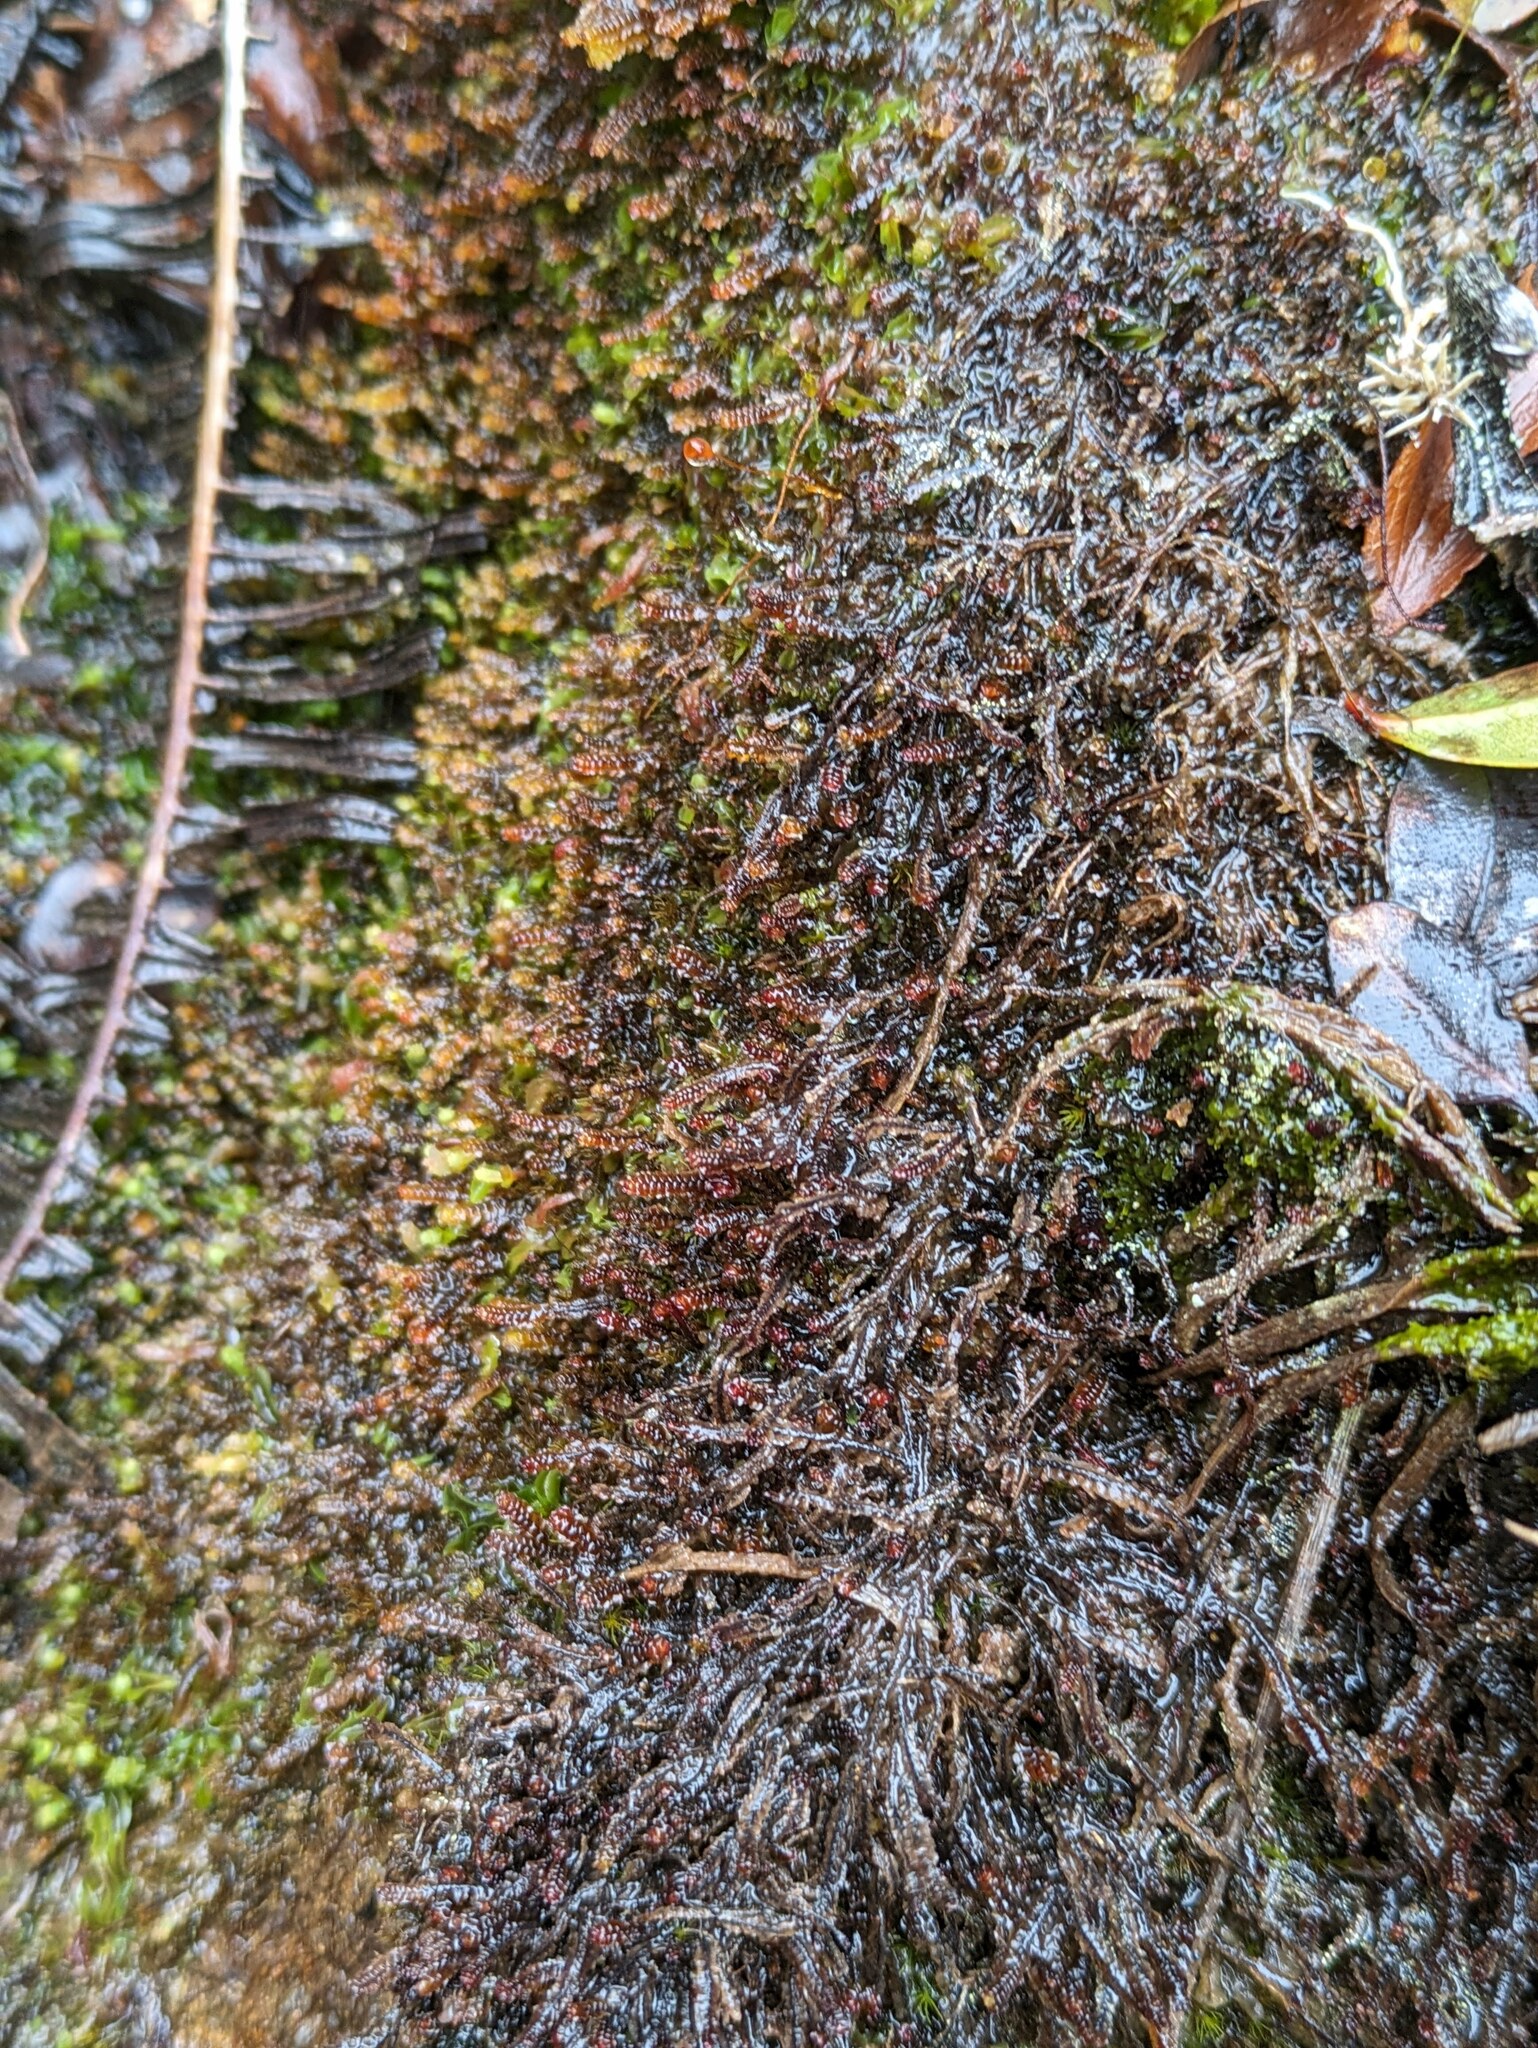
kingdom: Plantae
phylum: Marchantiophyta
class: Jungermanniopsida
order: Pleuroziales
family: Pleuroziaceae
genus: Pleurozia
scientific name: Pleurozia conchifolia
